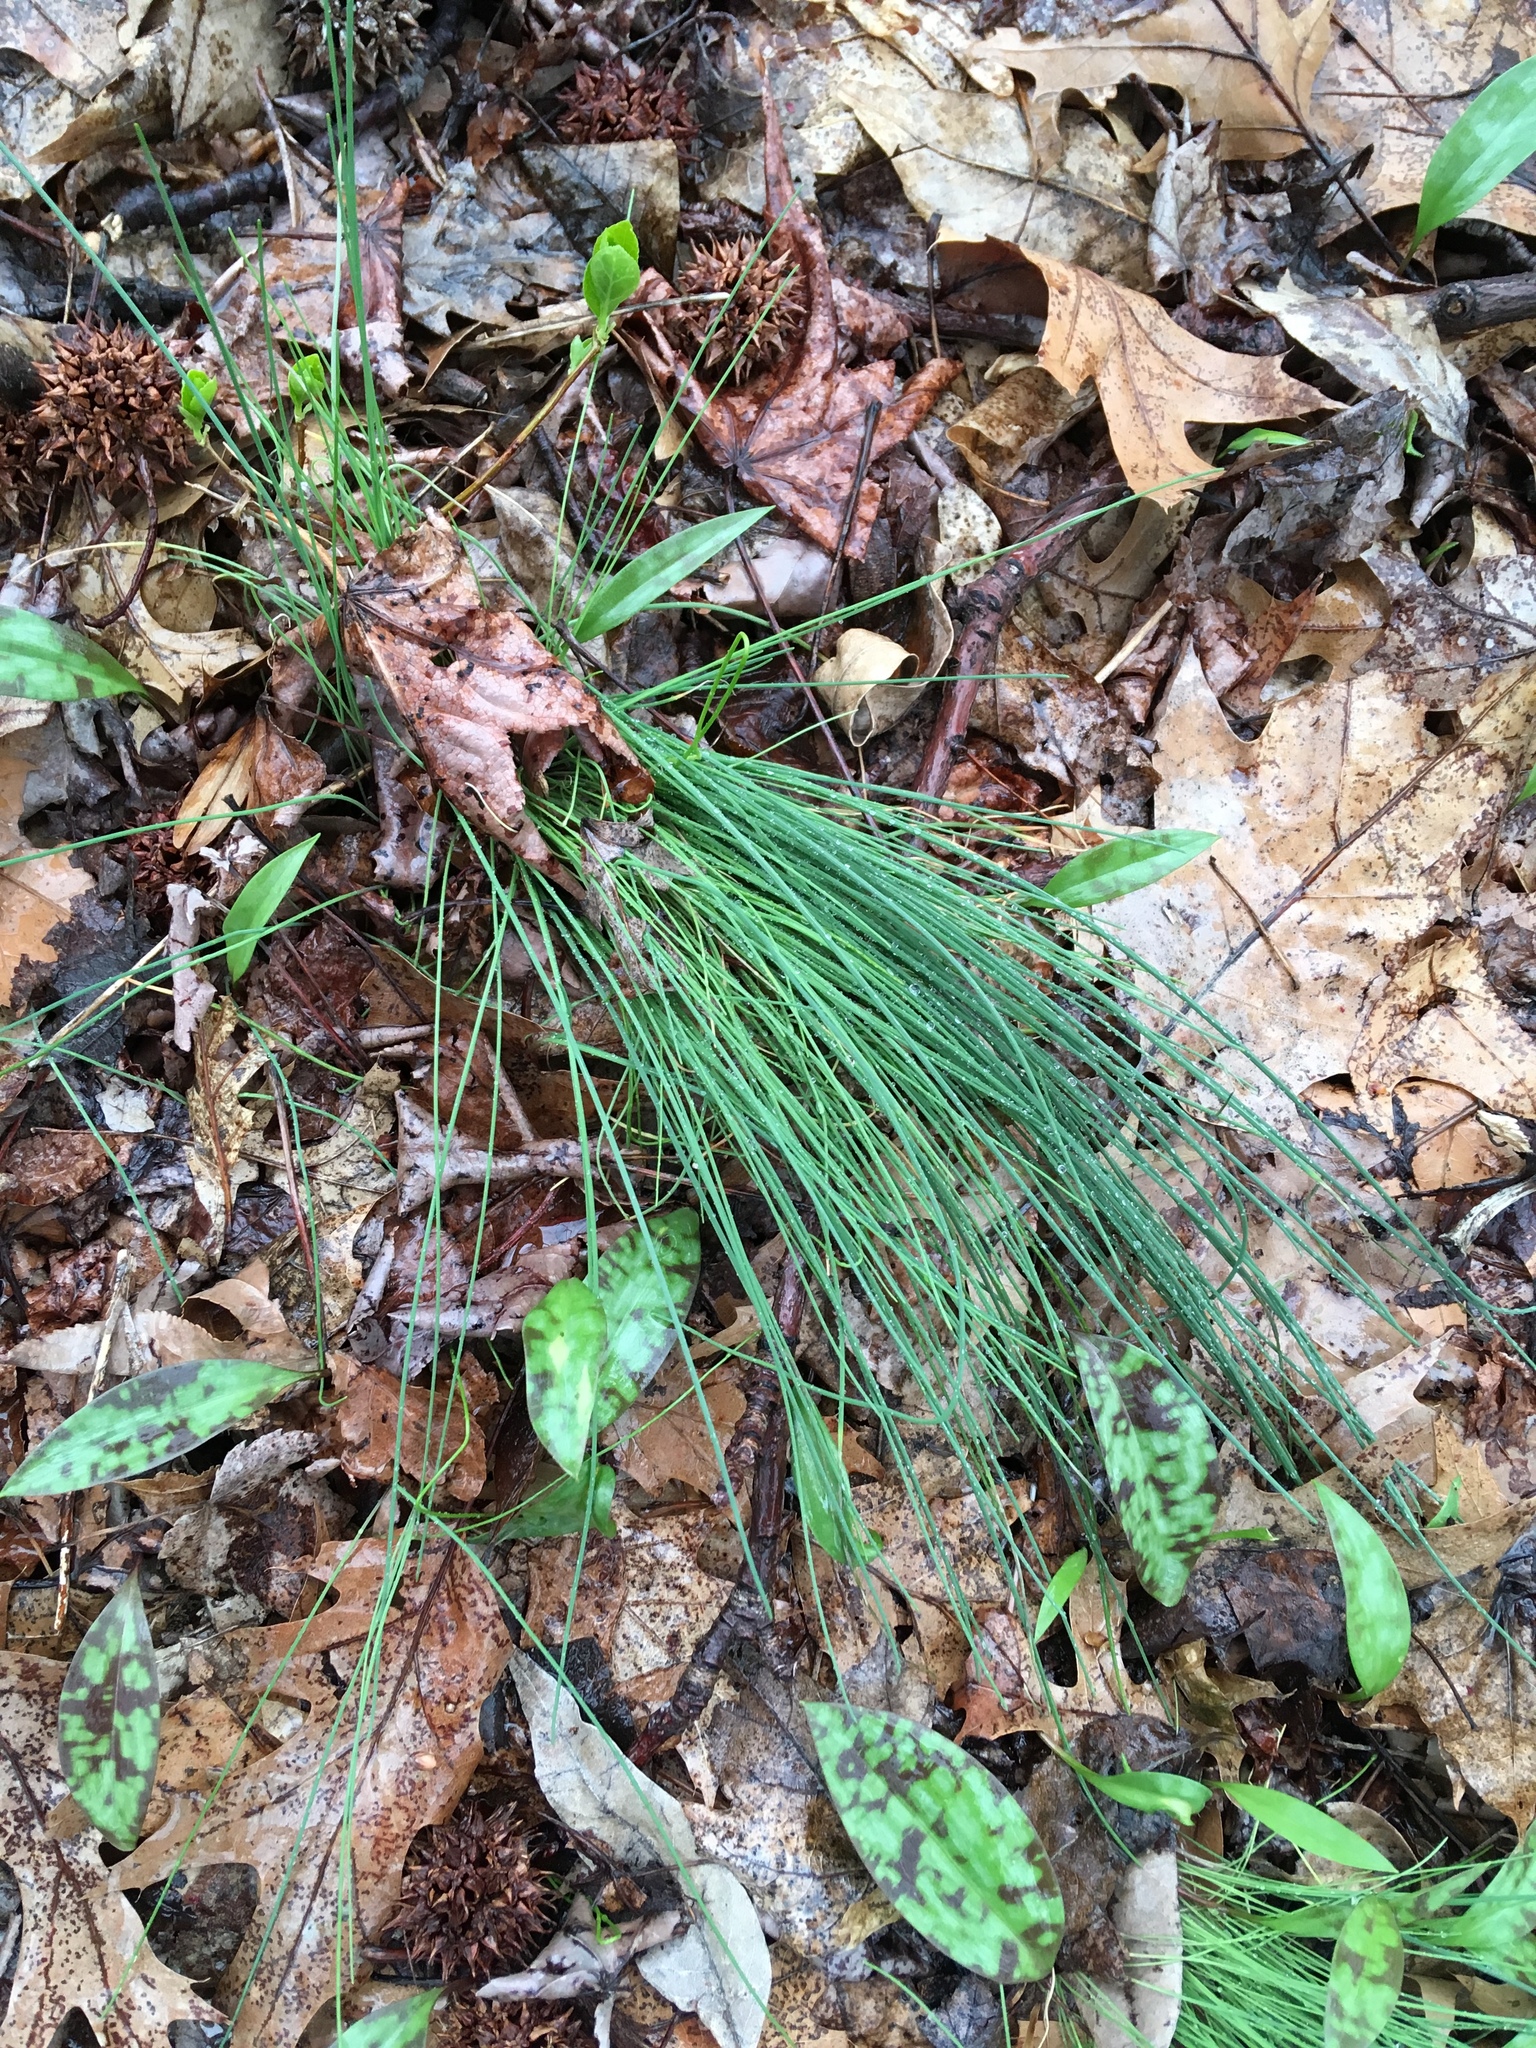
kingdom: Plantae
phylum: Tracheophyta
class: Liliopsida
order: Asparagales
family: Amaryllidaceae
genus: Allium
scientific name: Allium vineale
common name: Crow garlic
